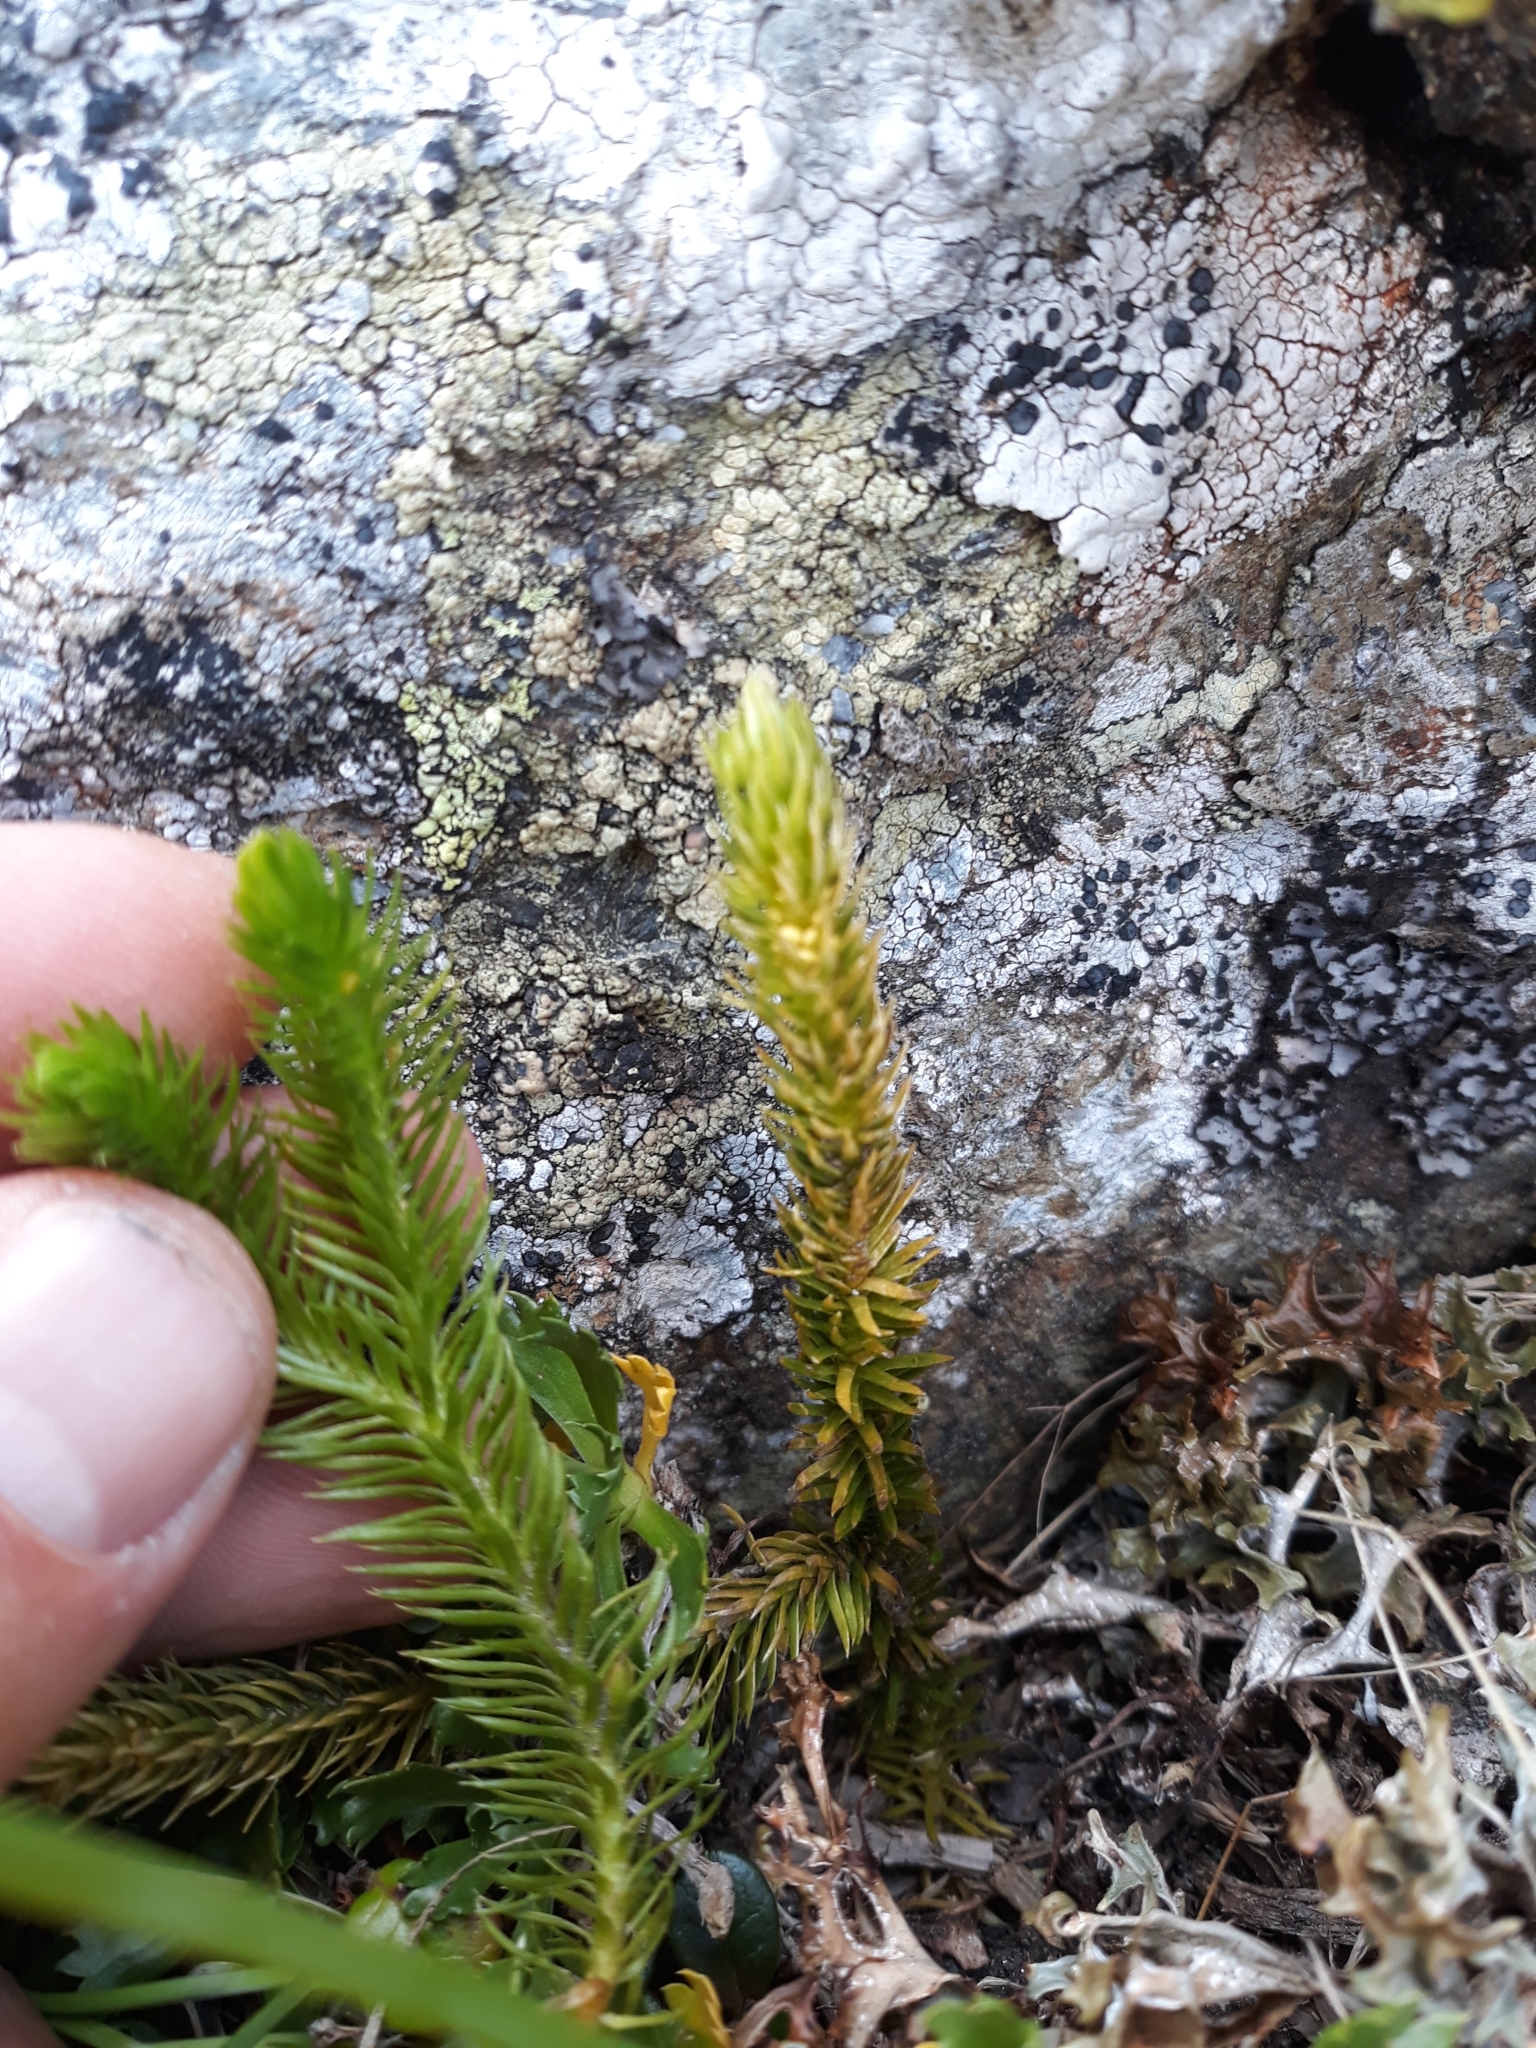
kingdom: Plantae
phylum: Tracheophyta
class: Lycopodiopsida
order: Lycopodiales
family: Lycopodiaceae
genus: Huperzia
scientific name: Huperzia selago
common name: Northern firmoss
